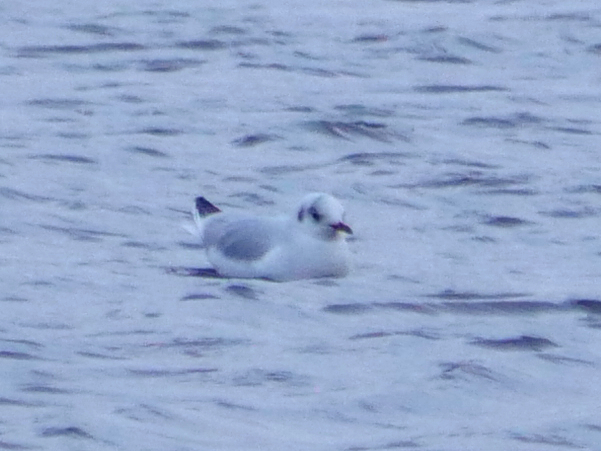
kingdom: Animalia
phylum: Chordata
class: Aves
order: Charadriiformes
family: Laridae
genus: Chroicocephalus
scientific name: Chroicocephalus ridibundus
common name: Black-headed gull
